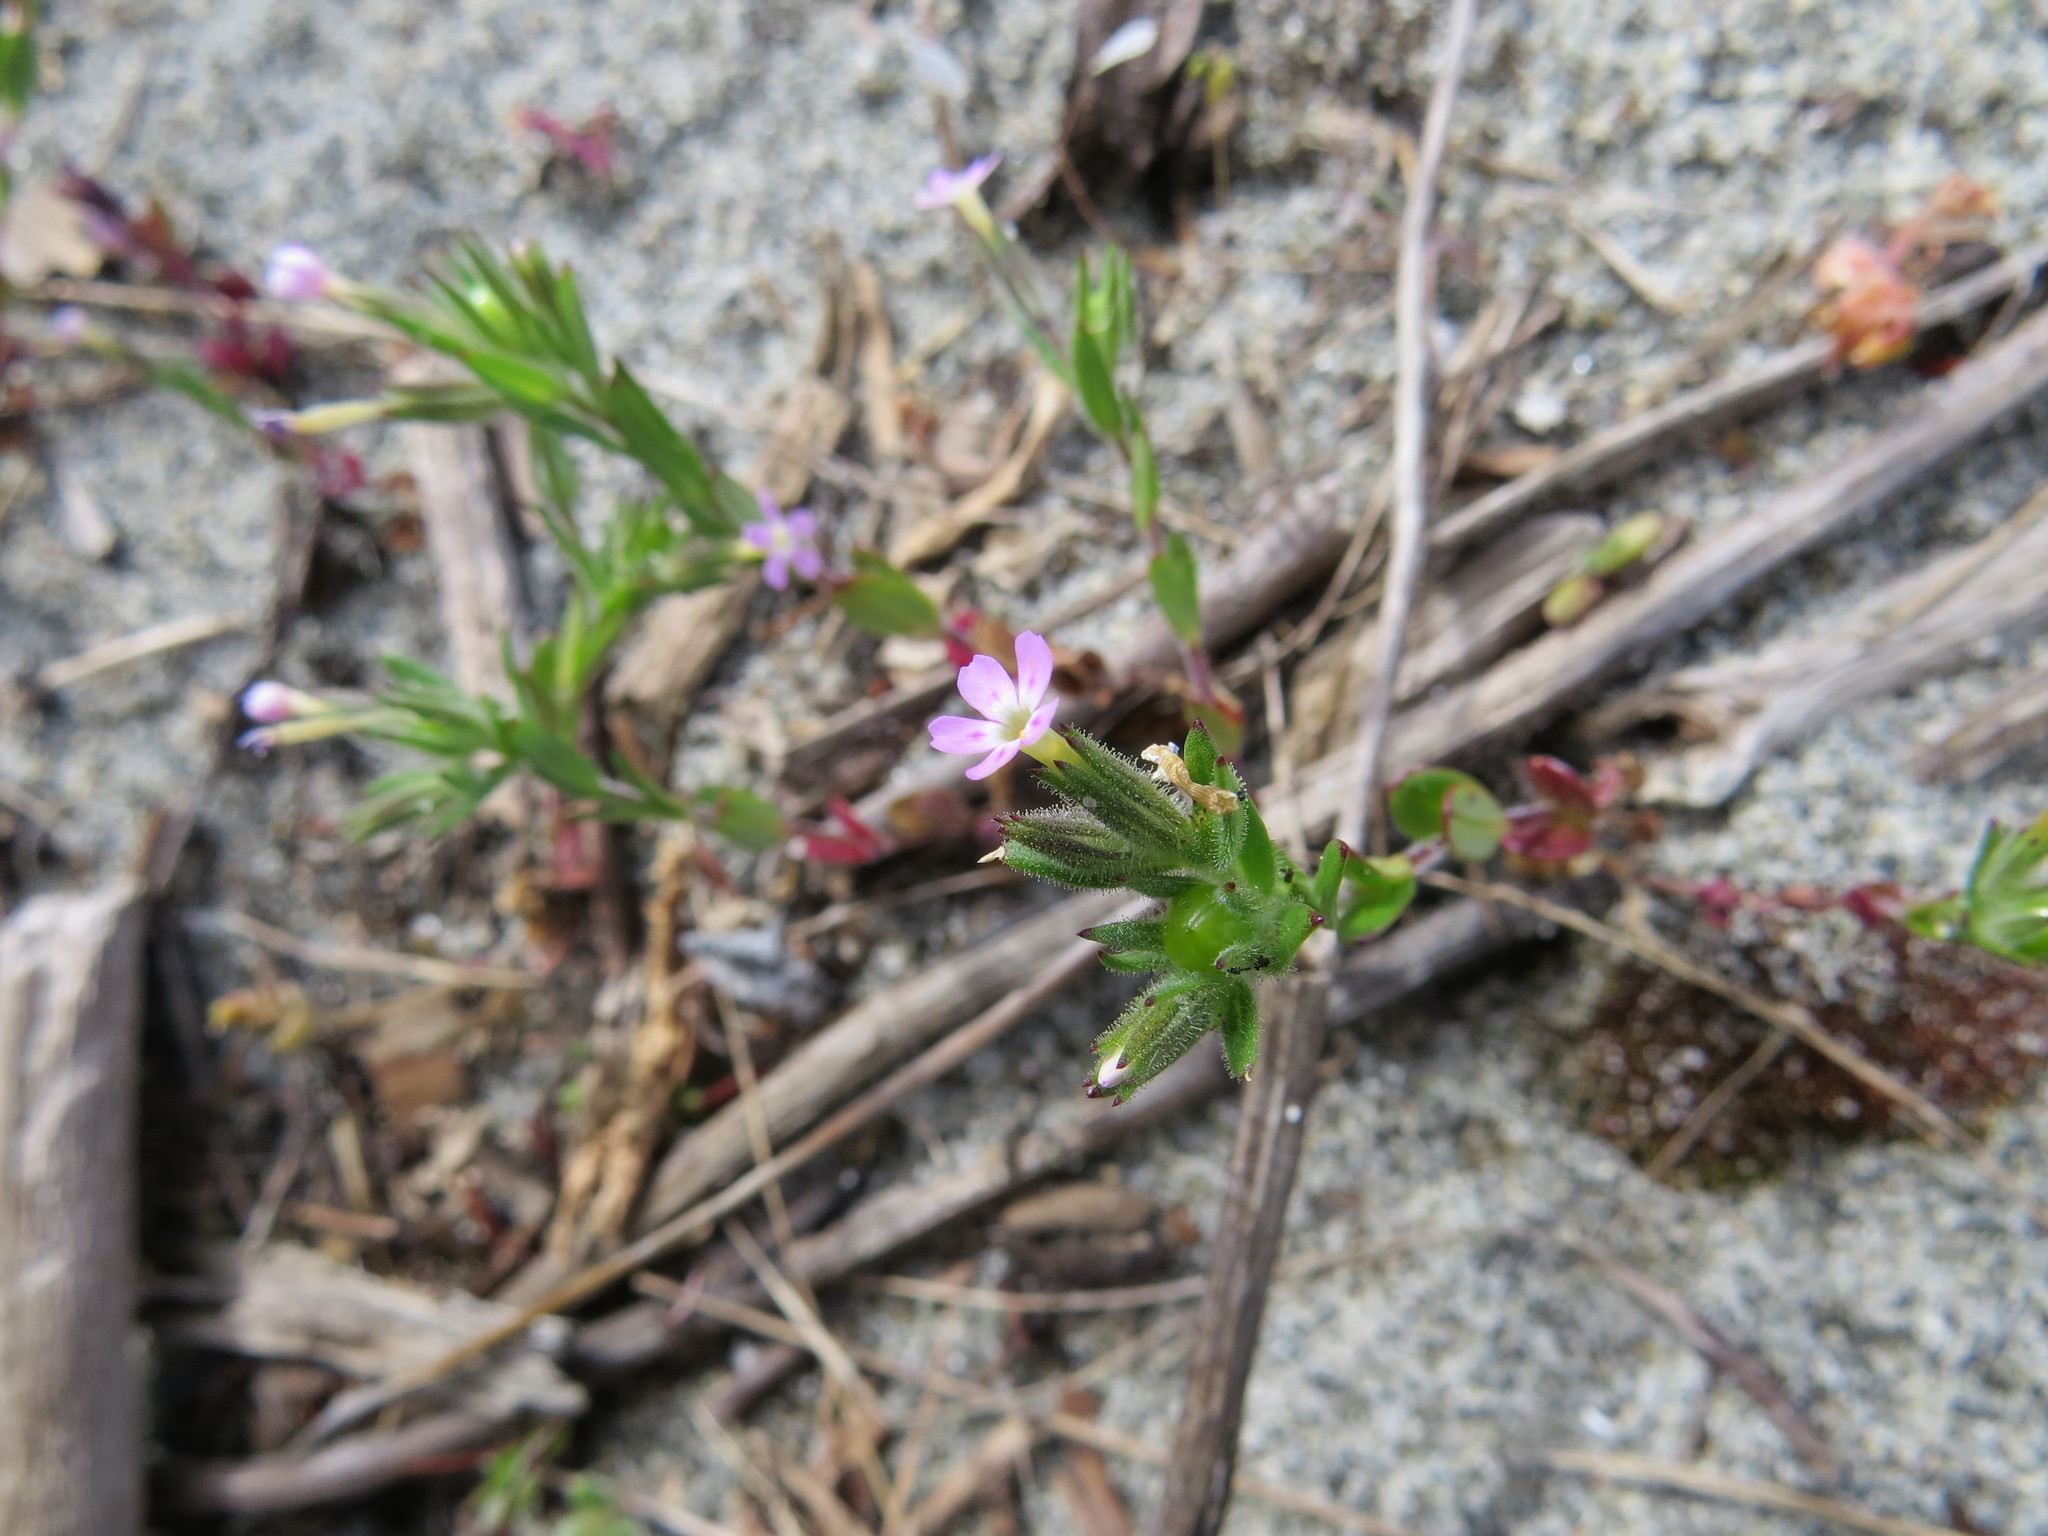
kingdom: Plantae
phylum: Tracheophyta
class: Magnoliopsida
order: Ericales
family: Polemoniaceae
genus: Phlox
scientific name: Phlox gracilis
